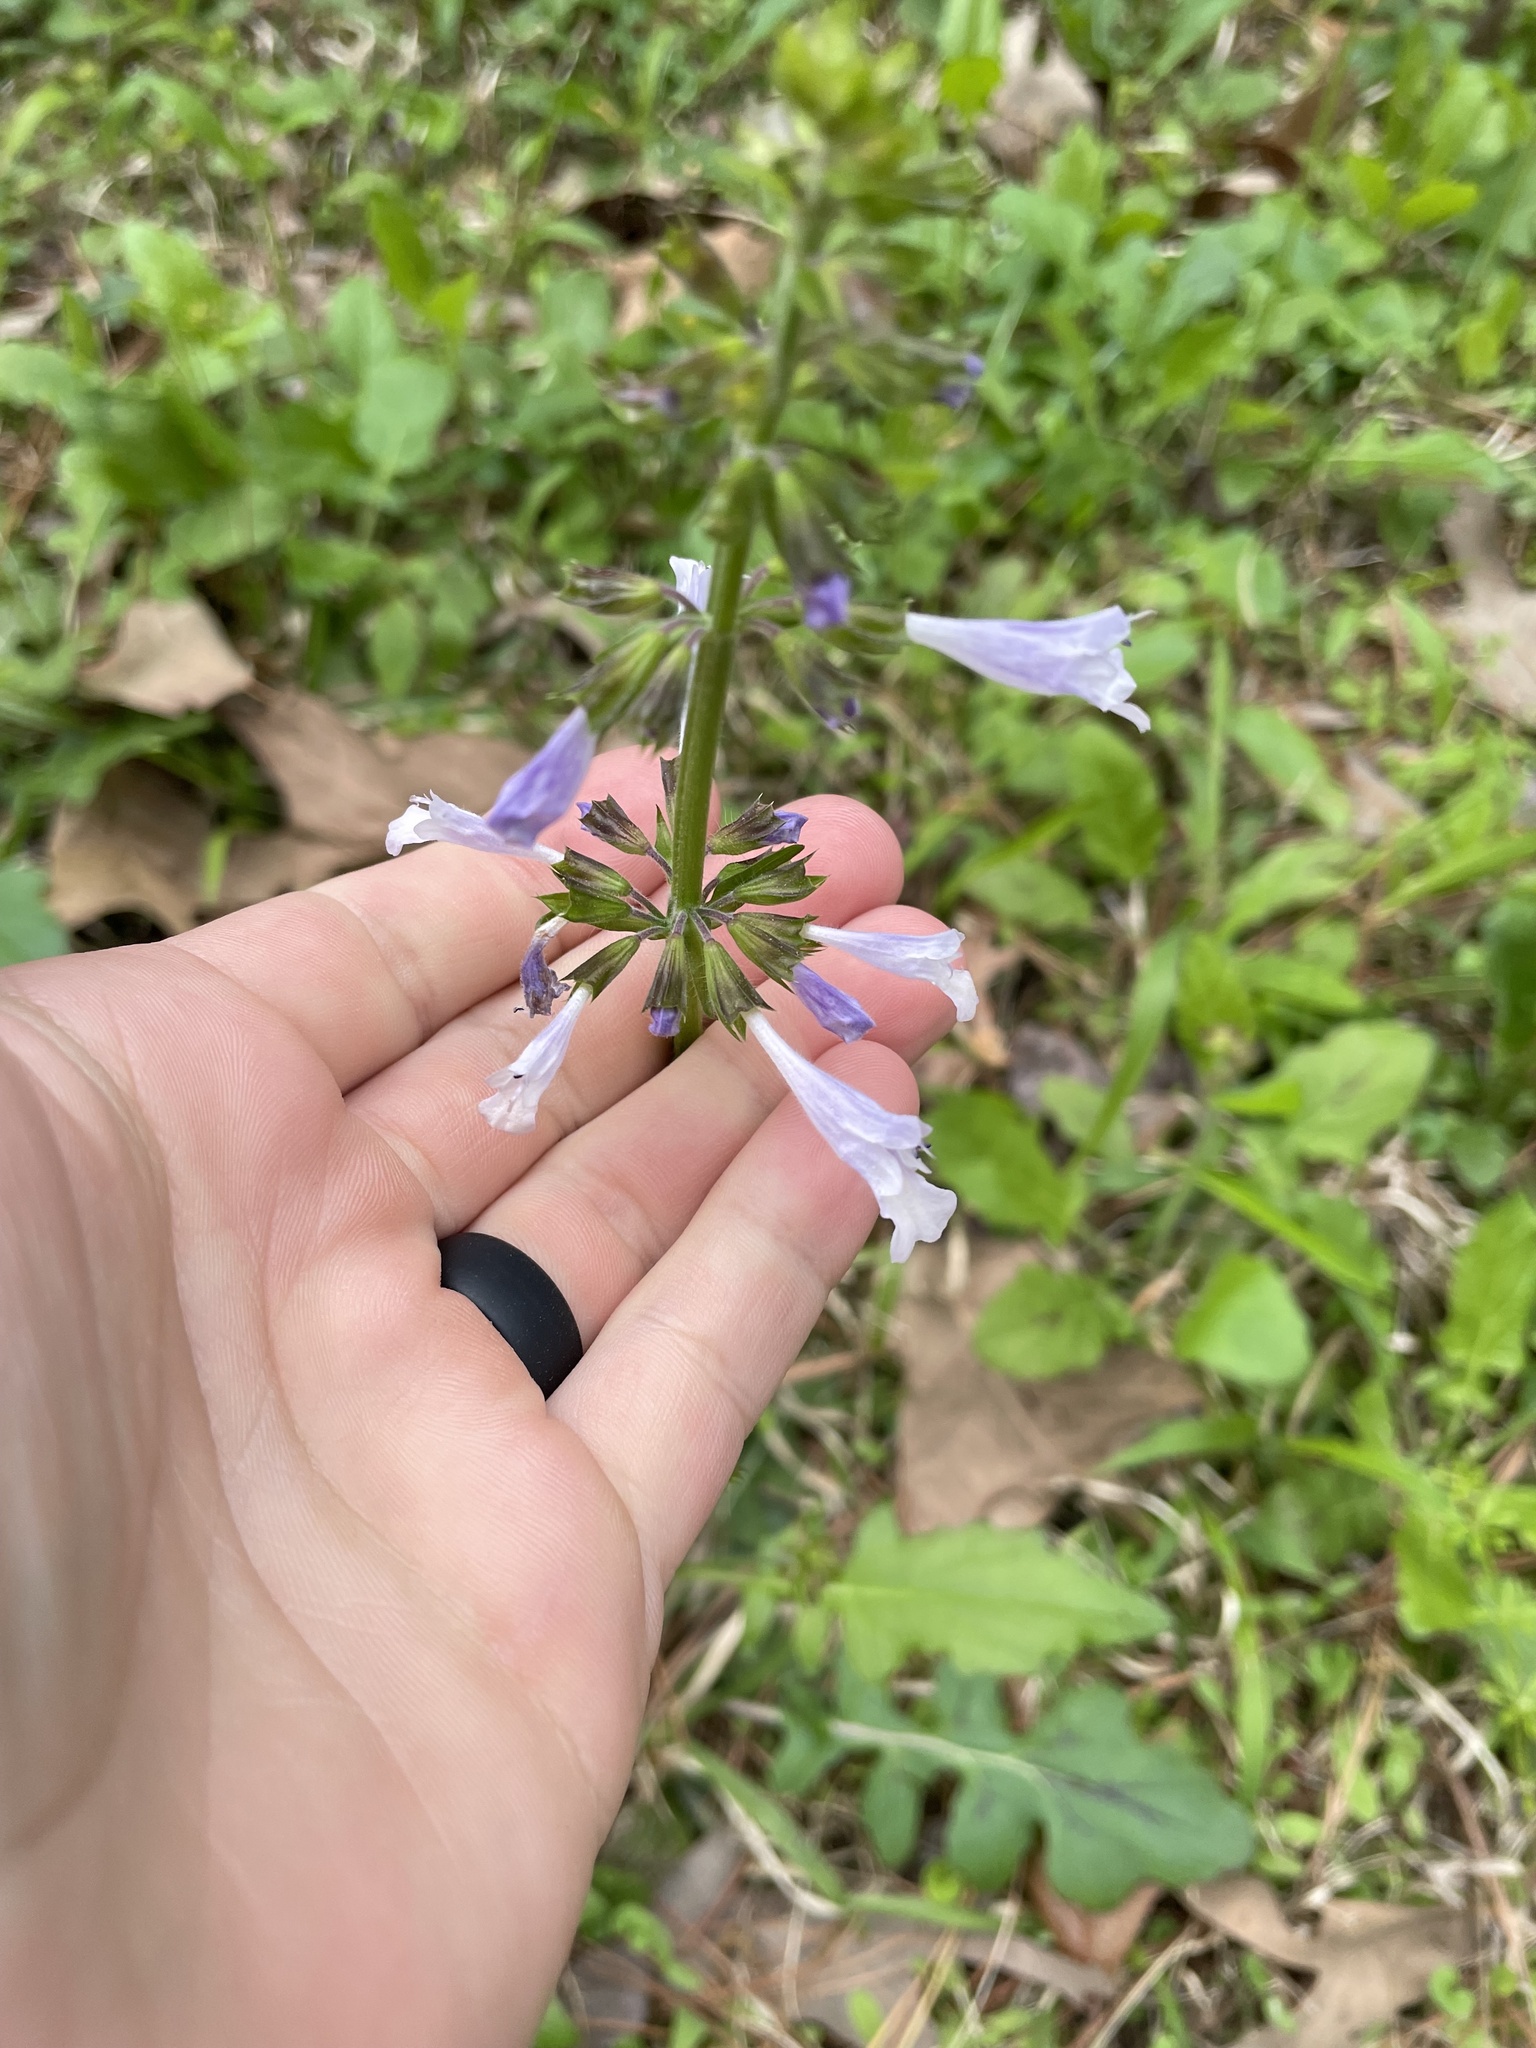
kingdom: Plantae
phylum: Tracheophyta
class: Magnoliopsida
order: Lamiales
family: Lamiaceae
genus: Salvia
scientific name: Salvia lyrata
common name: Cancerweed
